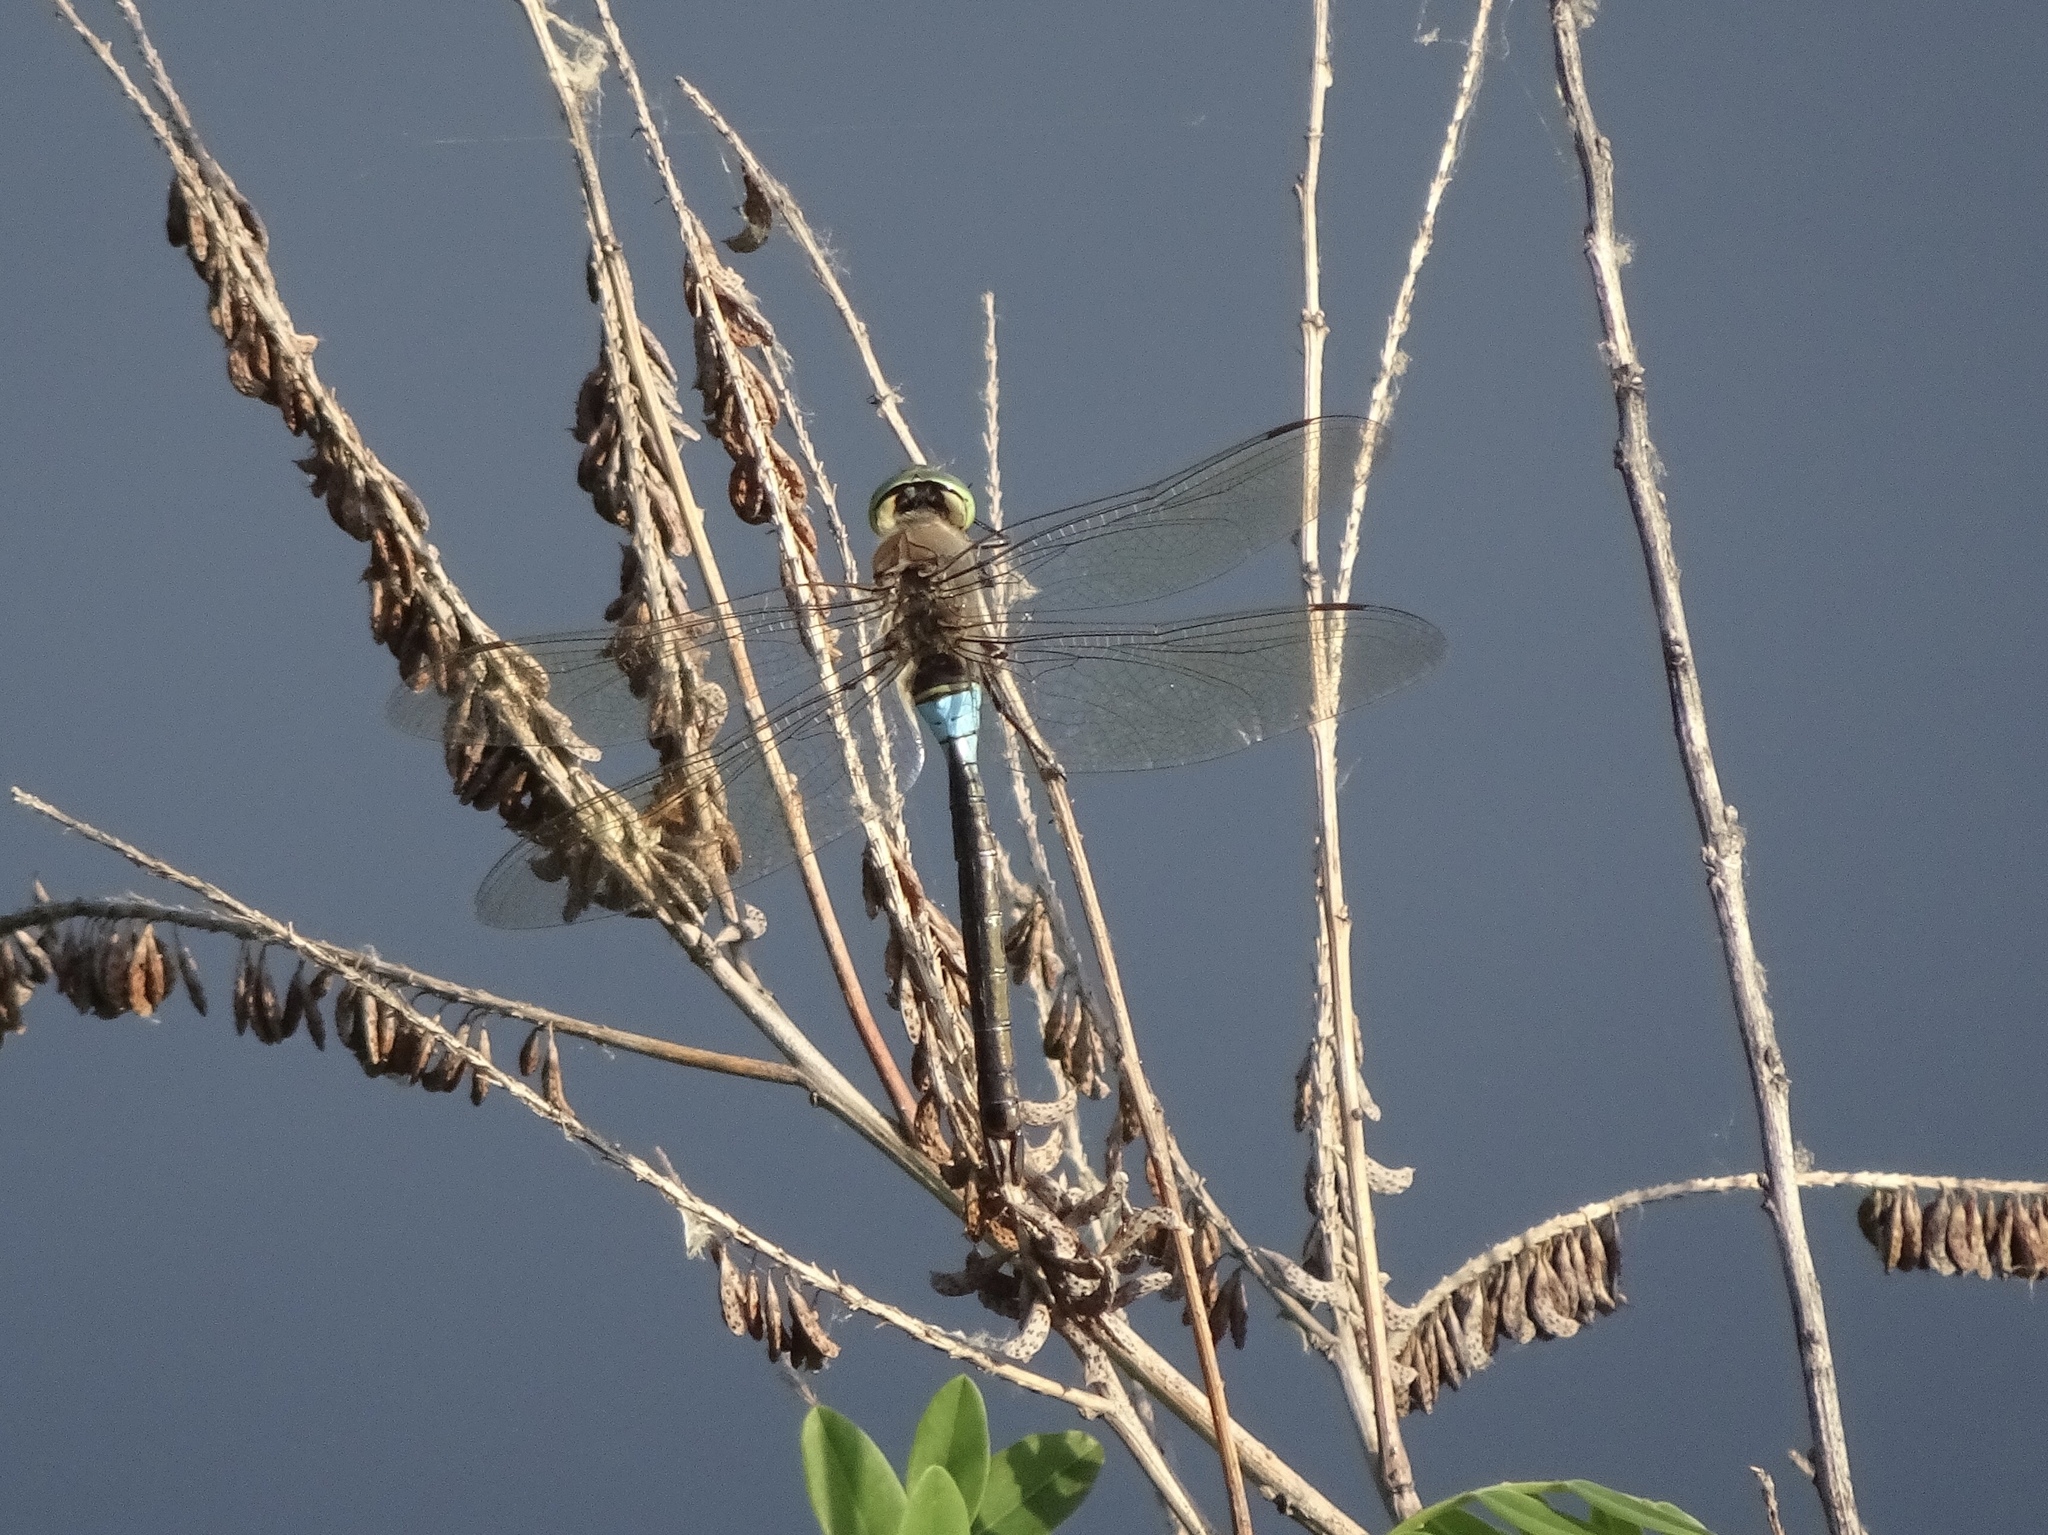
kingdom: Animalia
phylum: Arthropoda
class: Insecta
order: Odonata
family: Aeshnidae
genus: Anax
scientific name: Anax parthenope
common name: Lesser emperor
